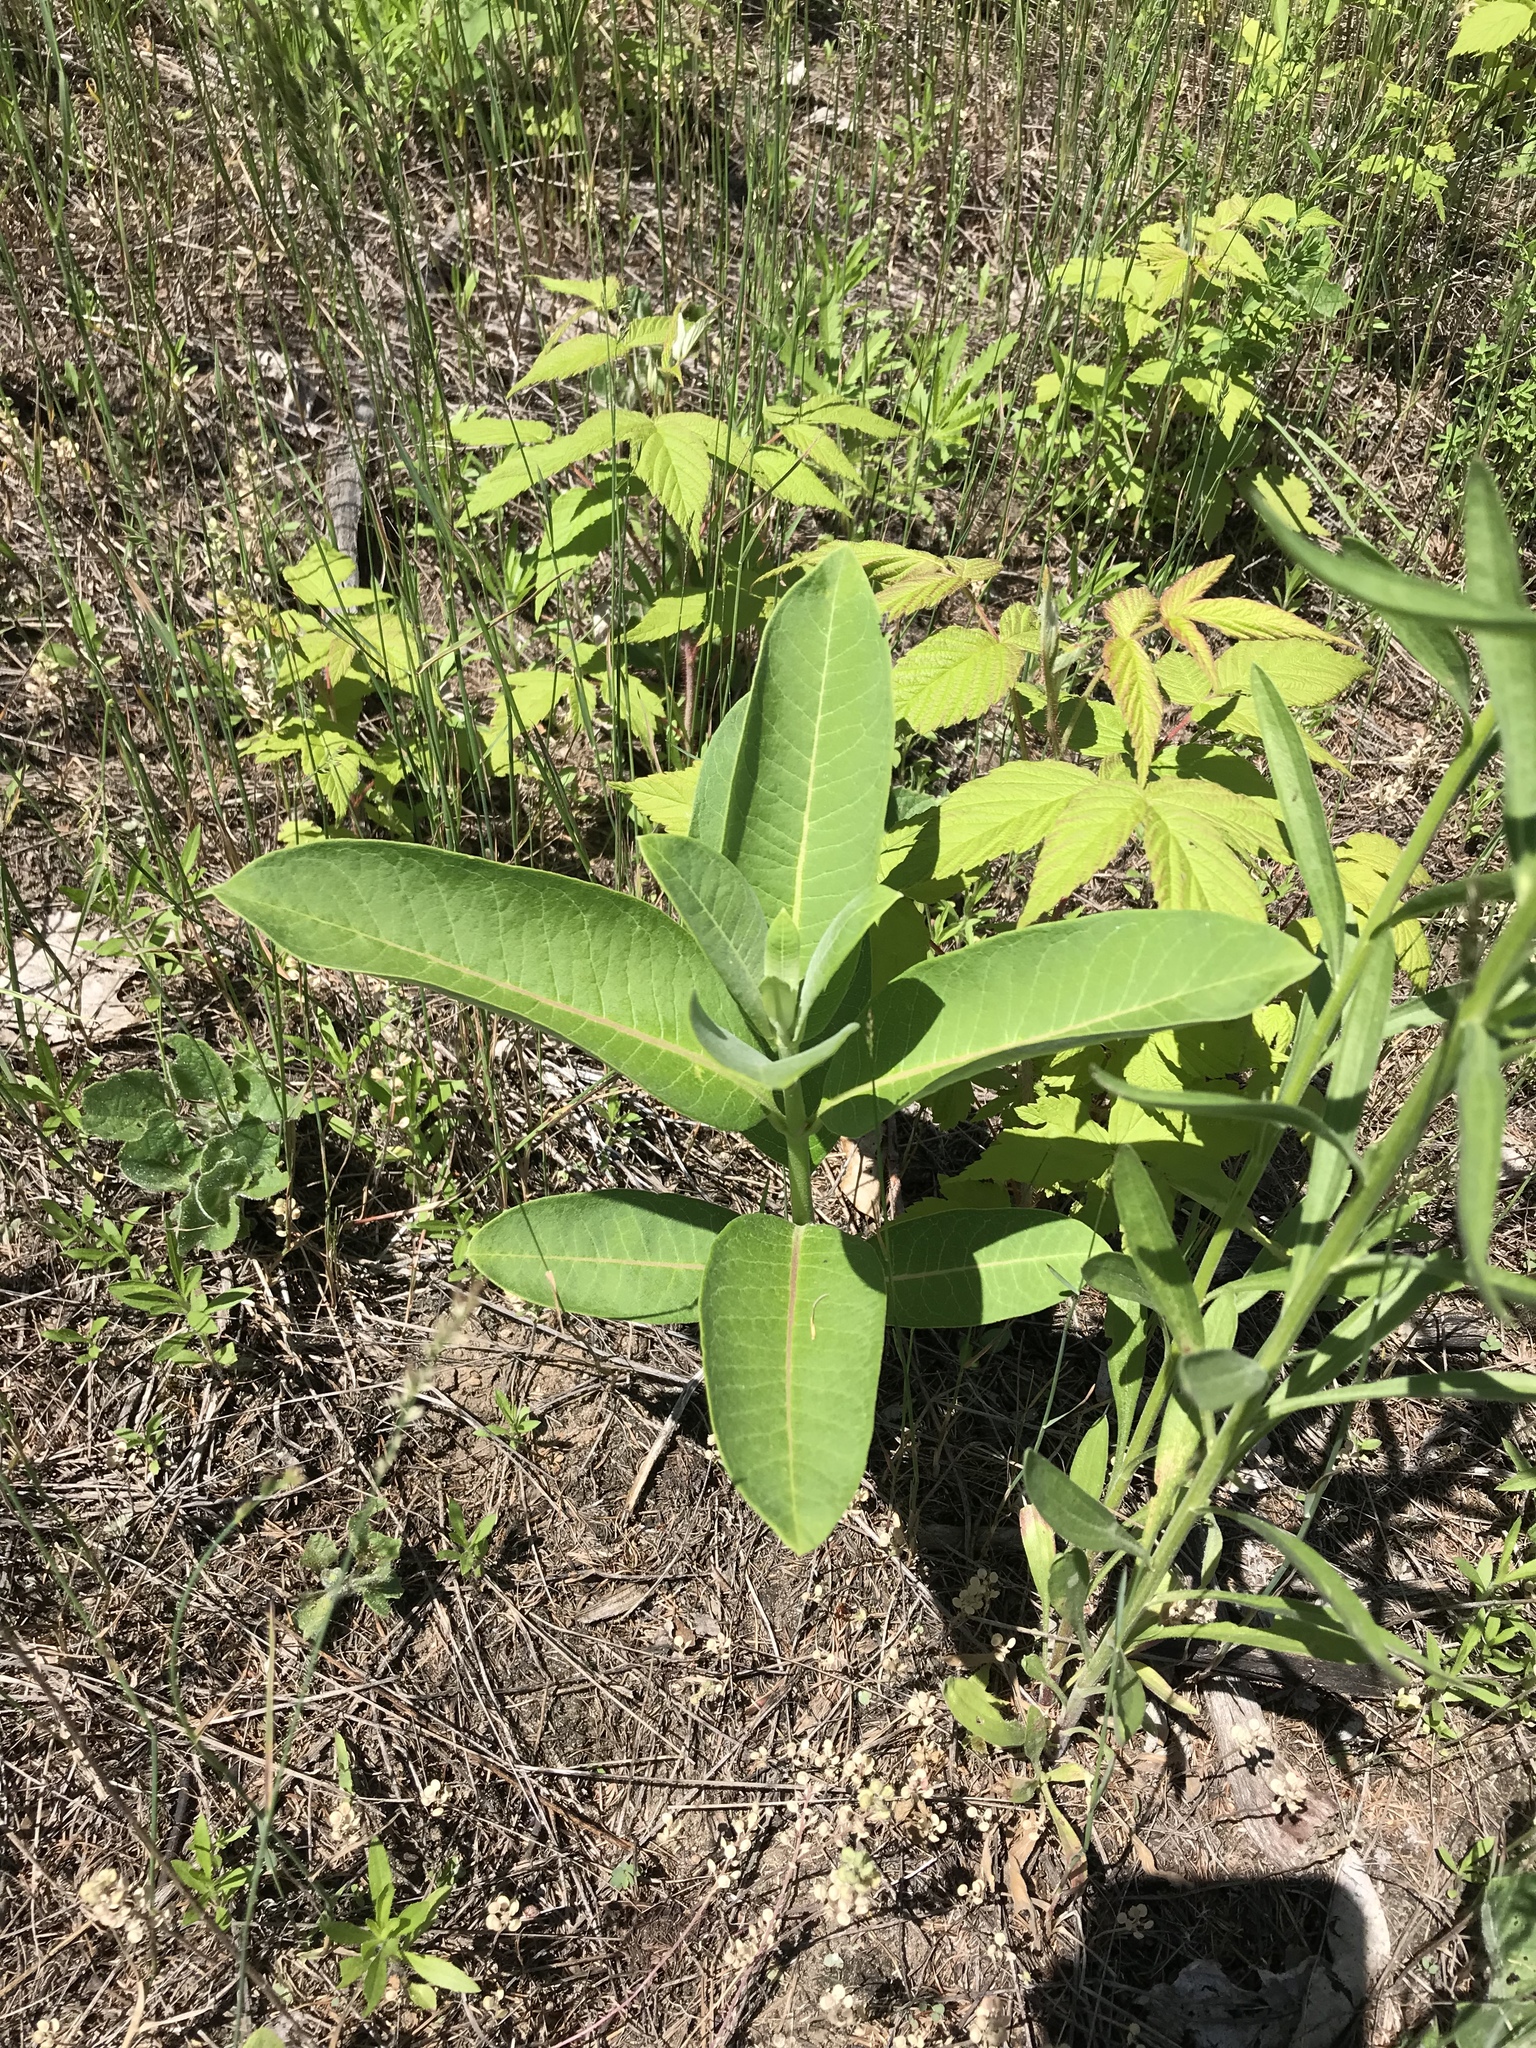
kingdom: Plantae
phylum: Tracheophyta
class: Magnoliopsida
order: Gentianales
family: Apocynaceae
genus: Asclepias
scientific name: Asclepias syriaca
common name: Common milkweed
